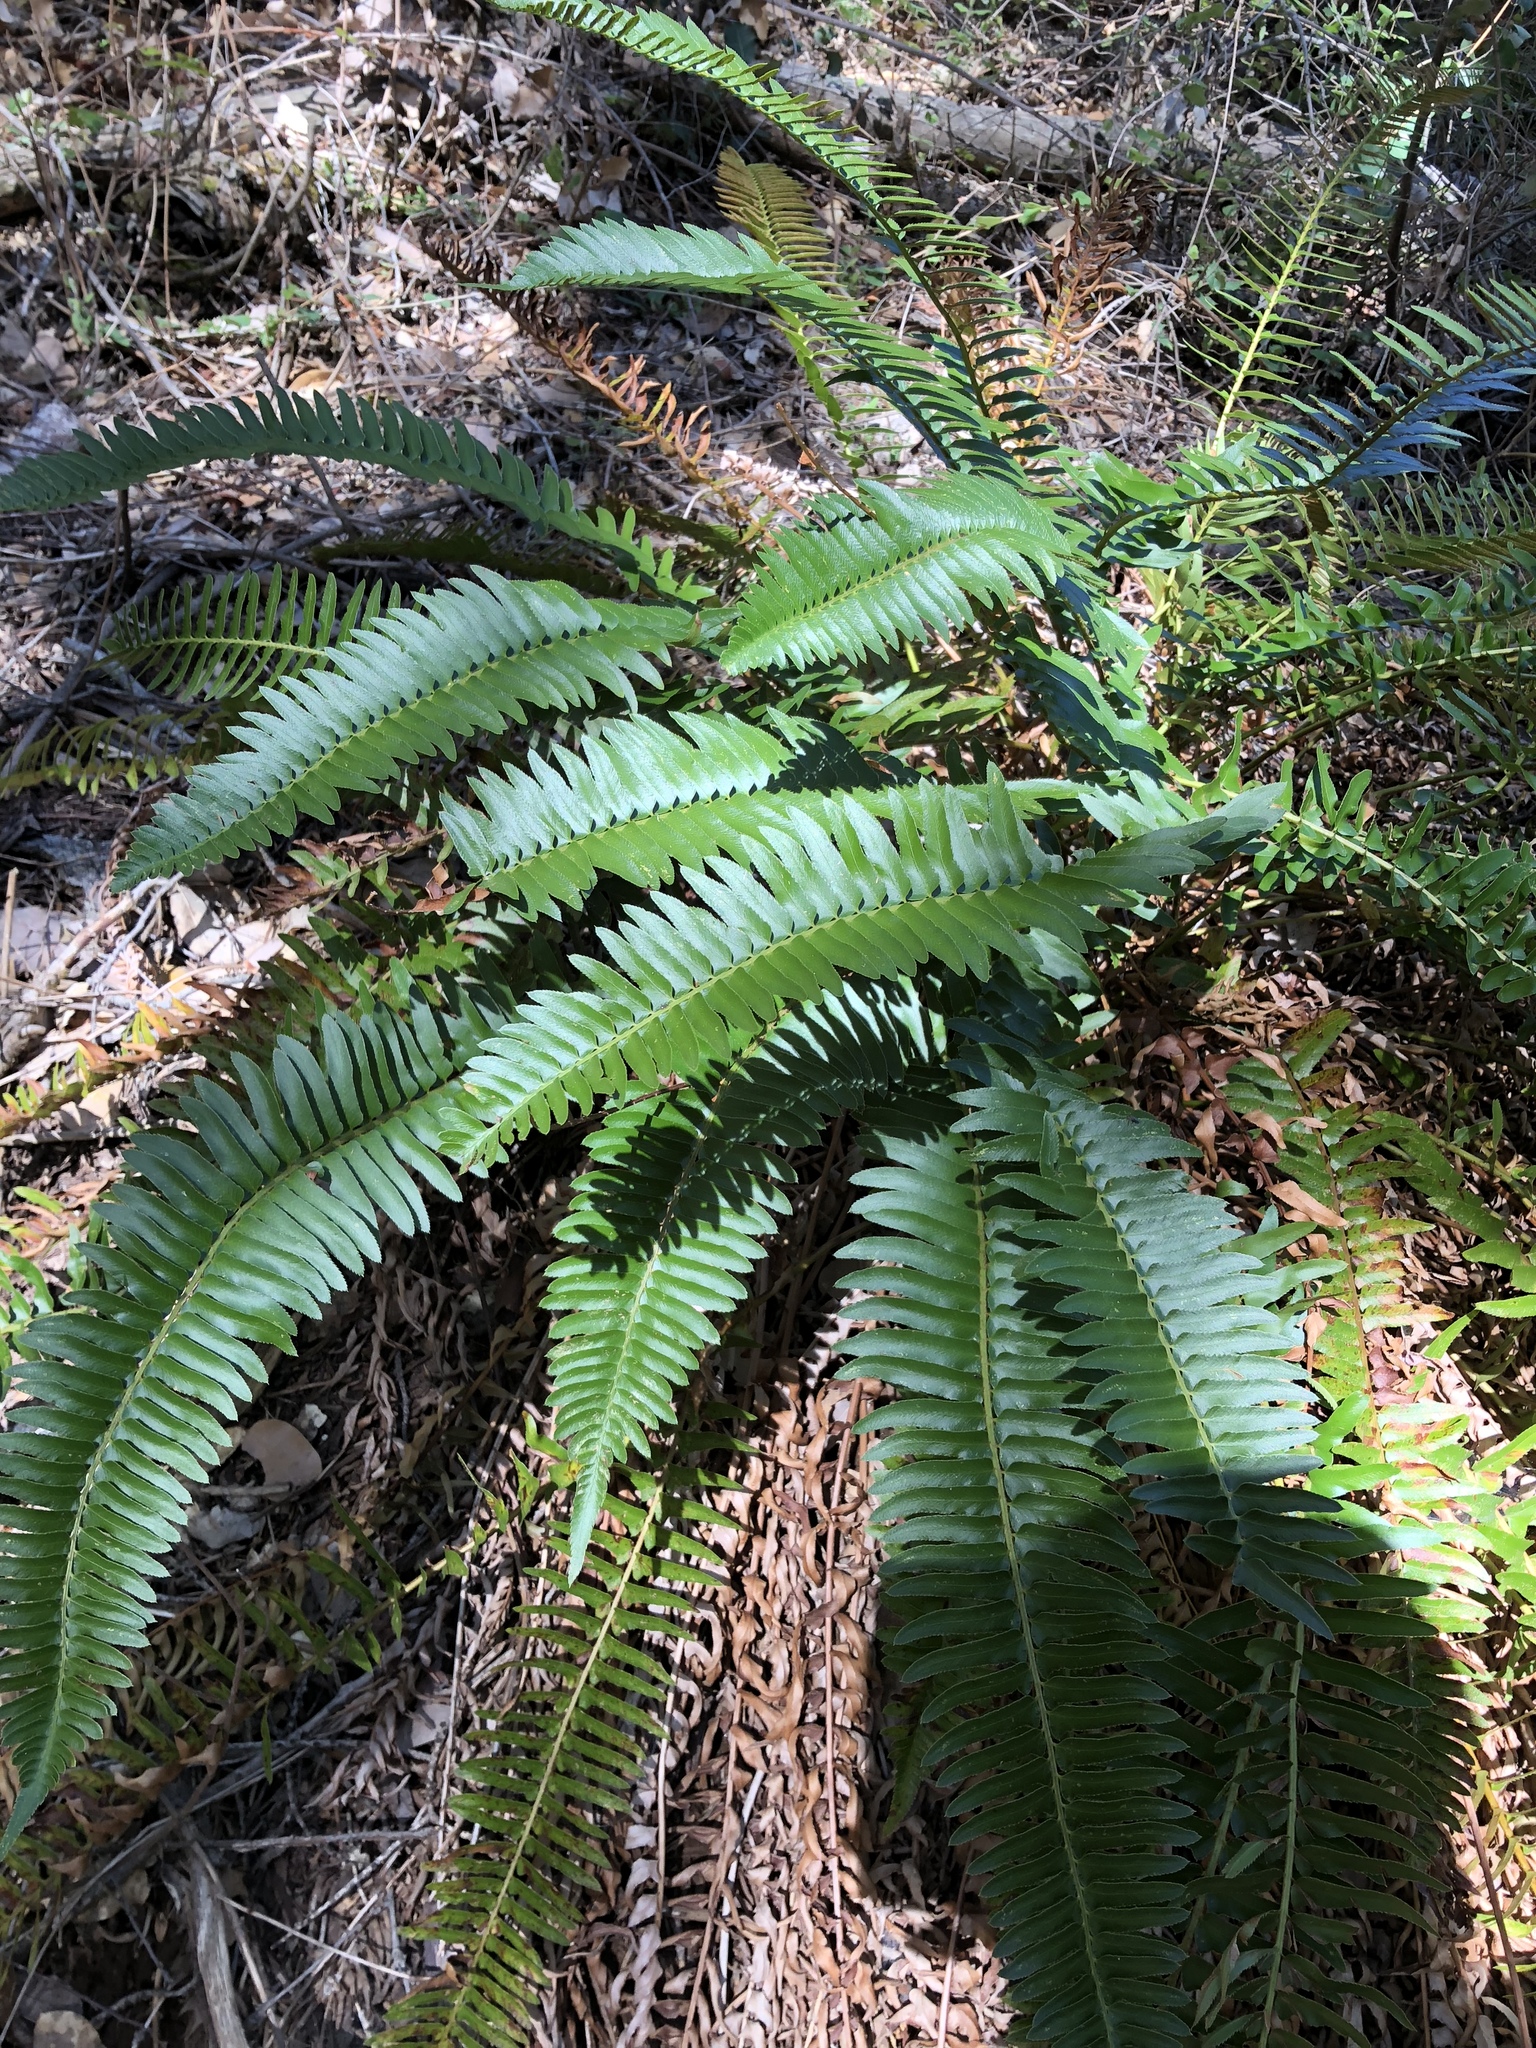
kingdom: Plantae
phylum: Tracheophyta
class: Polypodiopsida
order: Polypodiales
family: Dryopteridaceae
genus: Polystichum
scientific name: Polystichum imbricans
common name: Dwarf western sword fern
